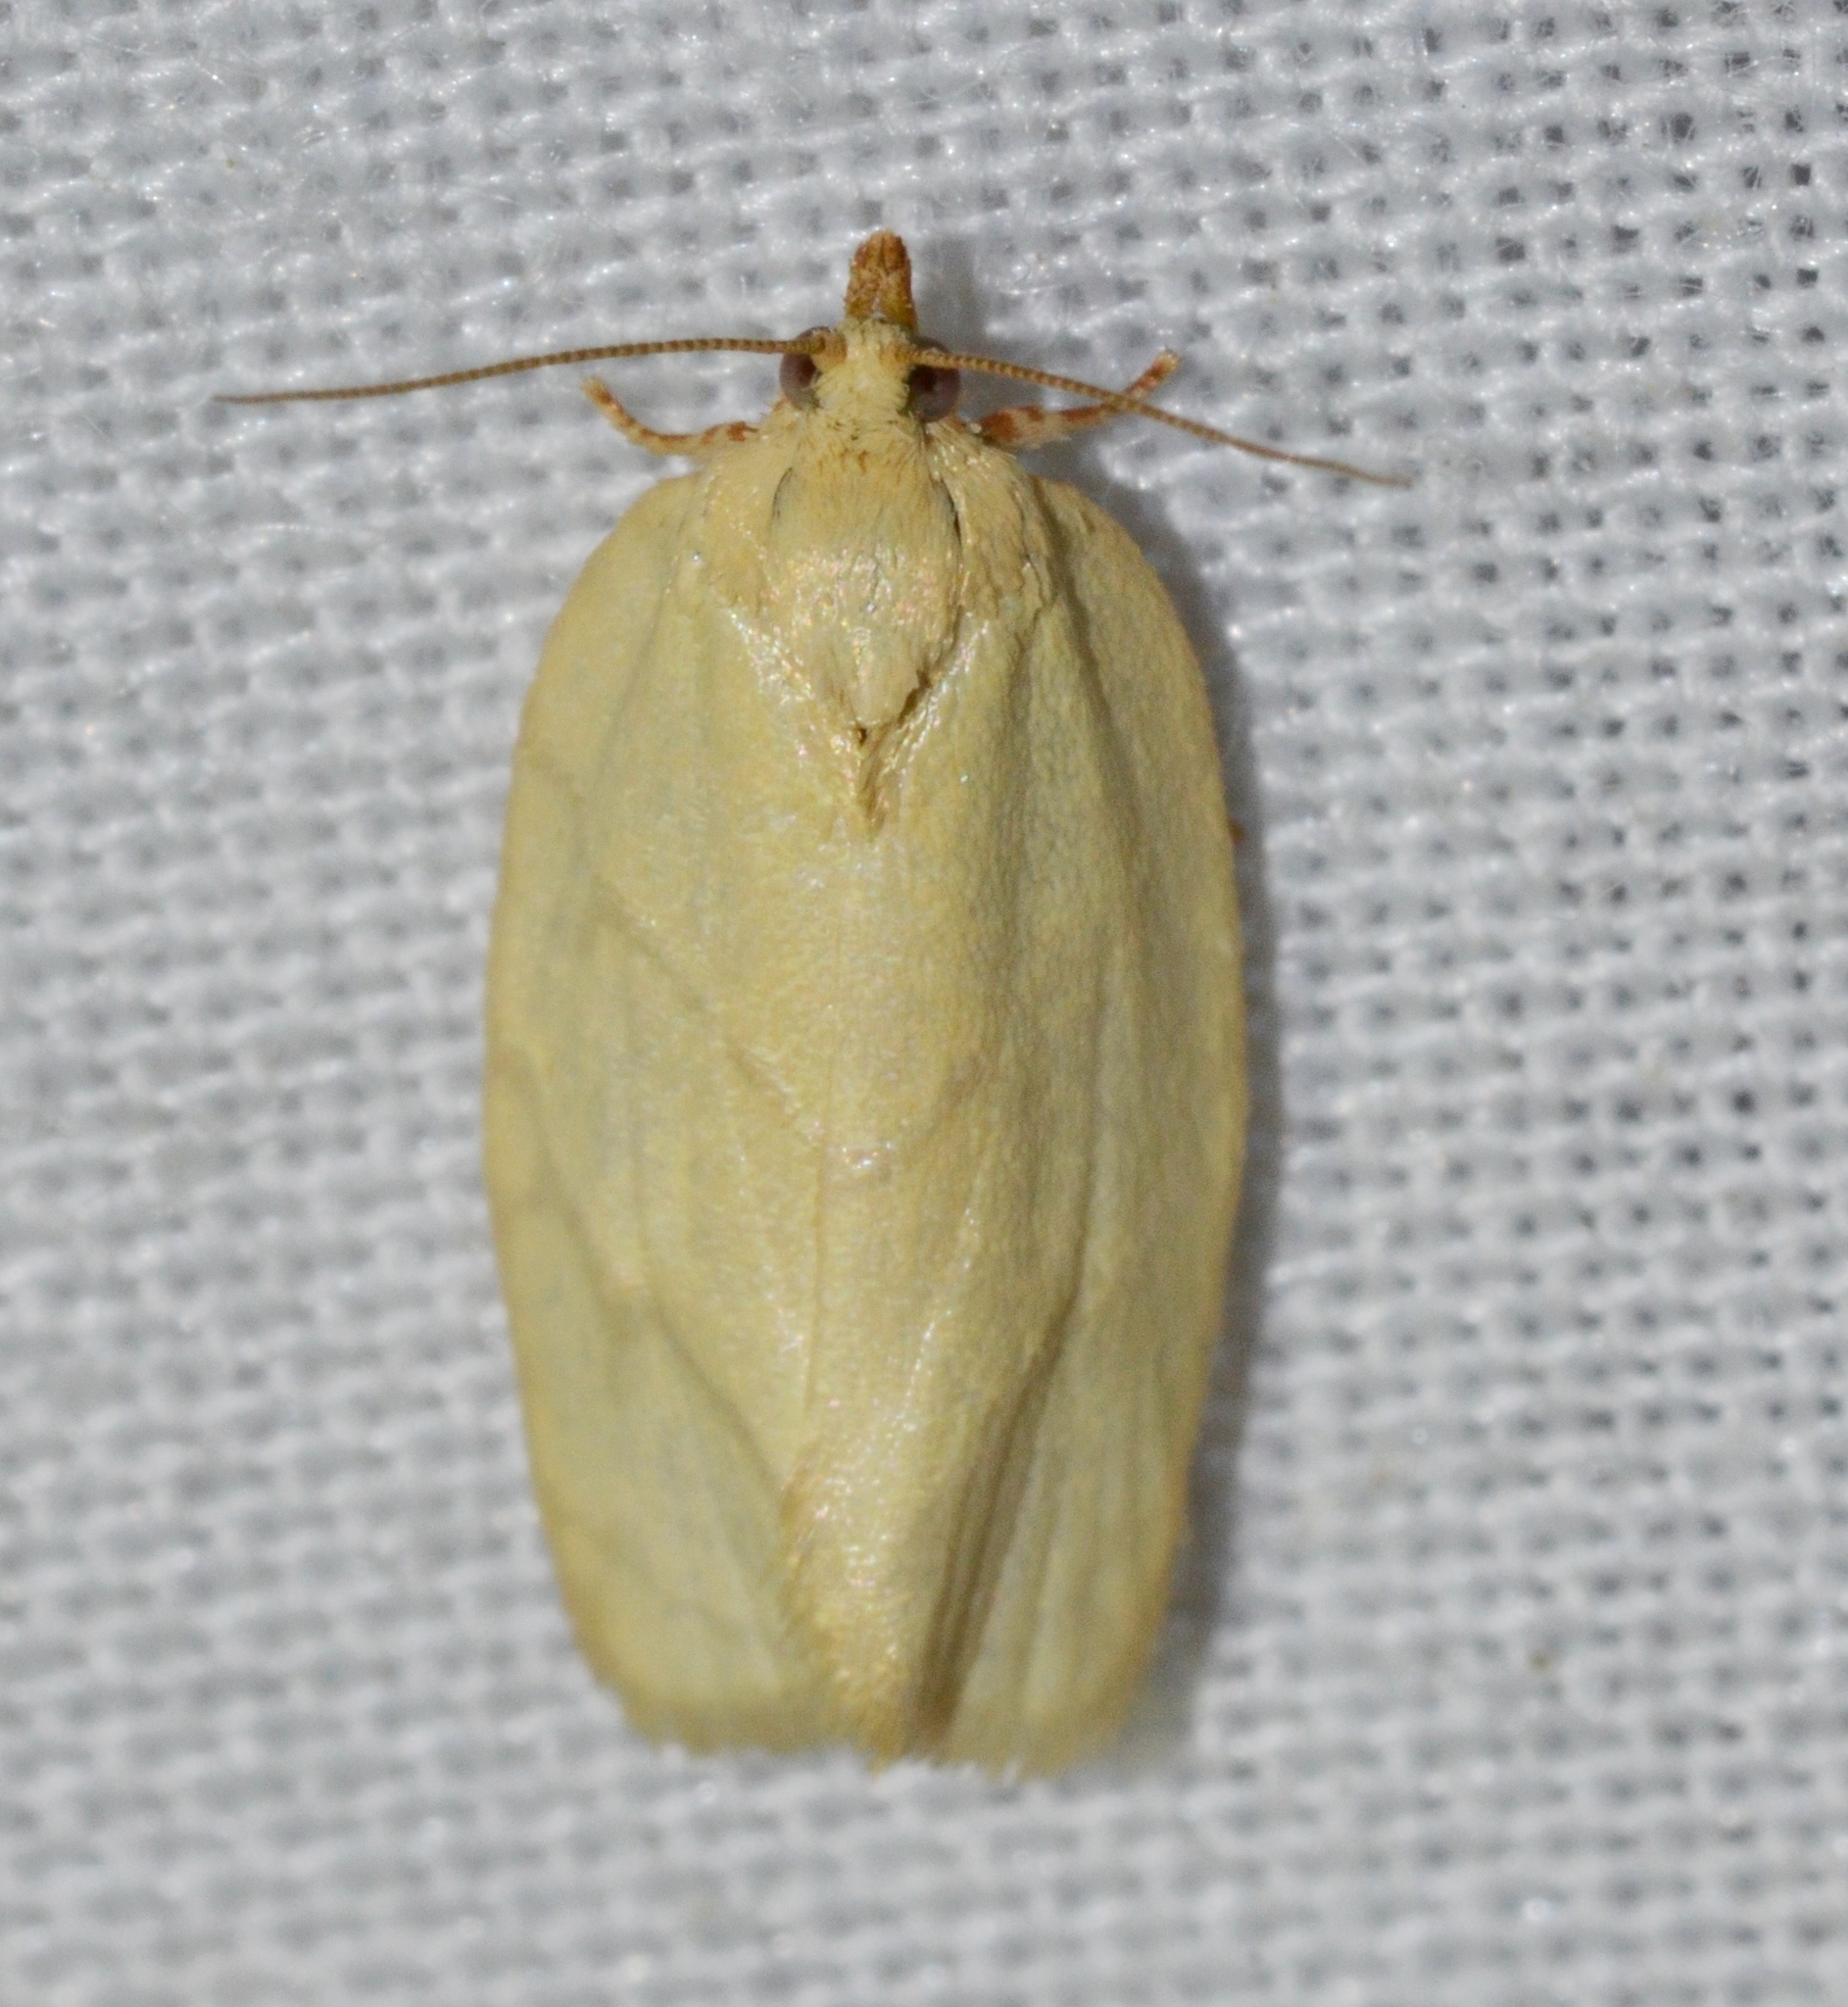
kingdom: Animalia
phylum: Arthropoda
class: Insecta
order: Lepidoptera
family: Tortricidae
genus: Argyrotaenia
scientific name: Argyrotaenia quercifoliana
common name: Yellow-winged oak leafroller moth
